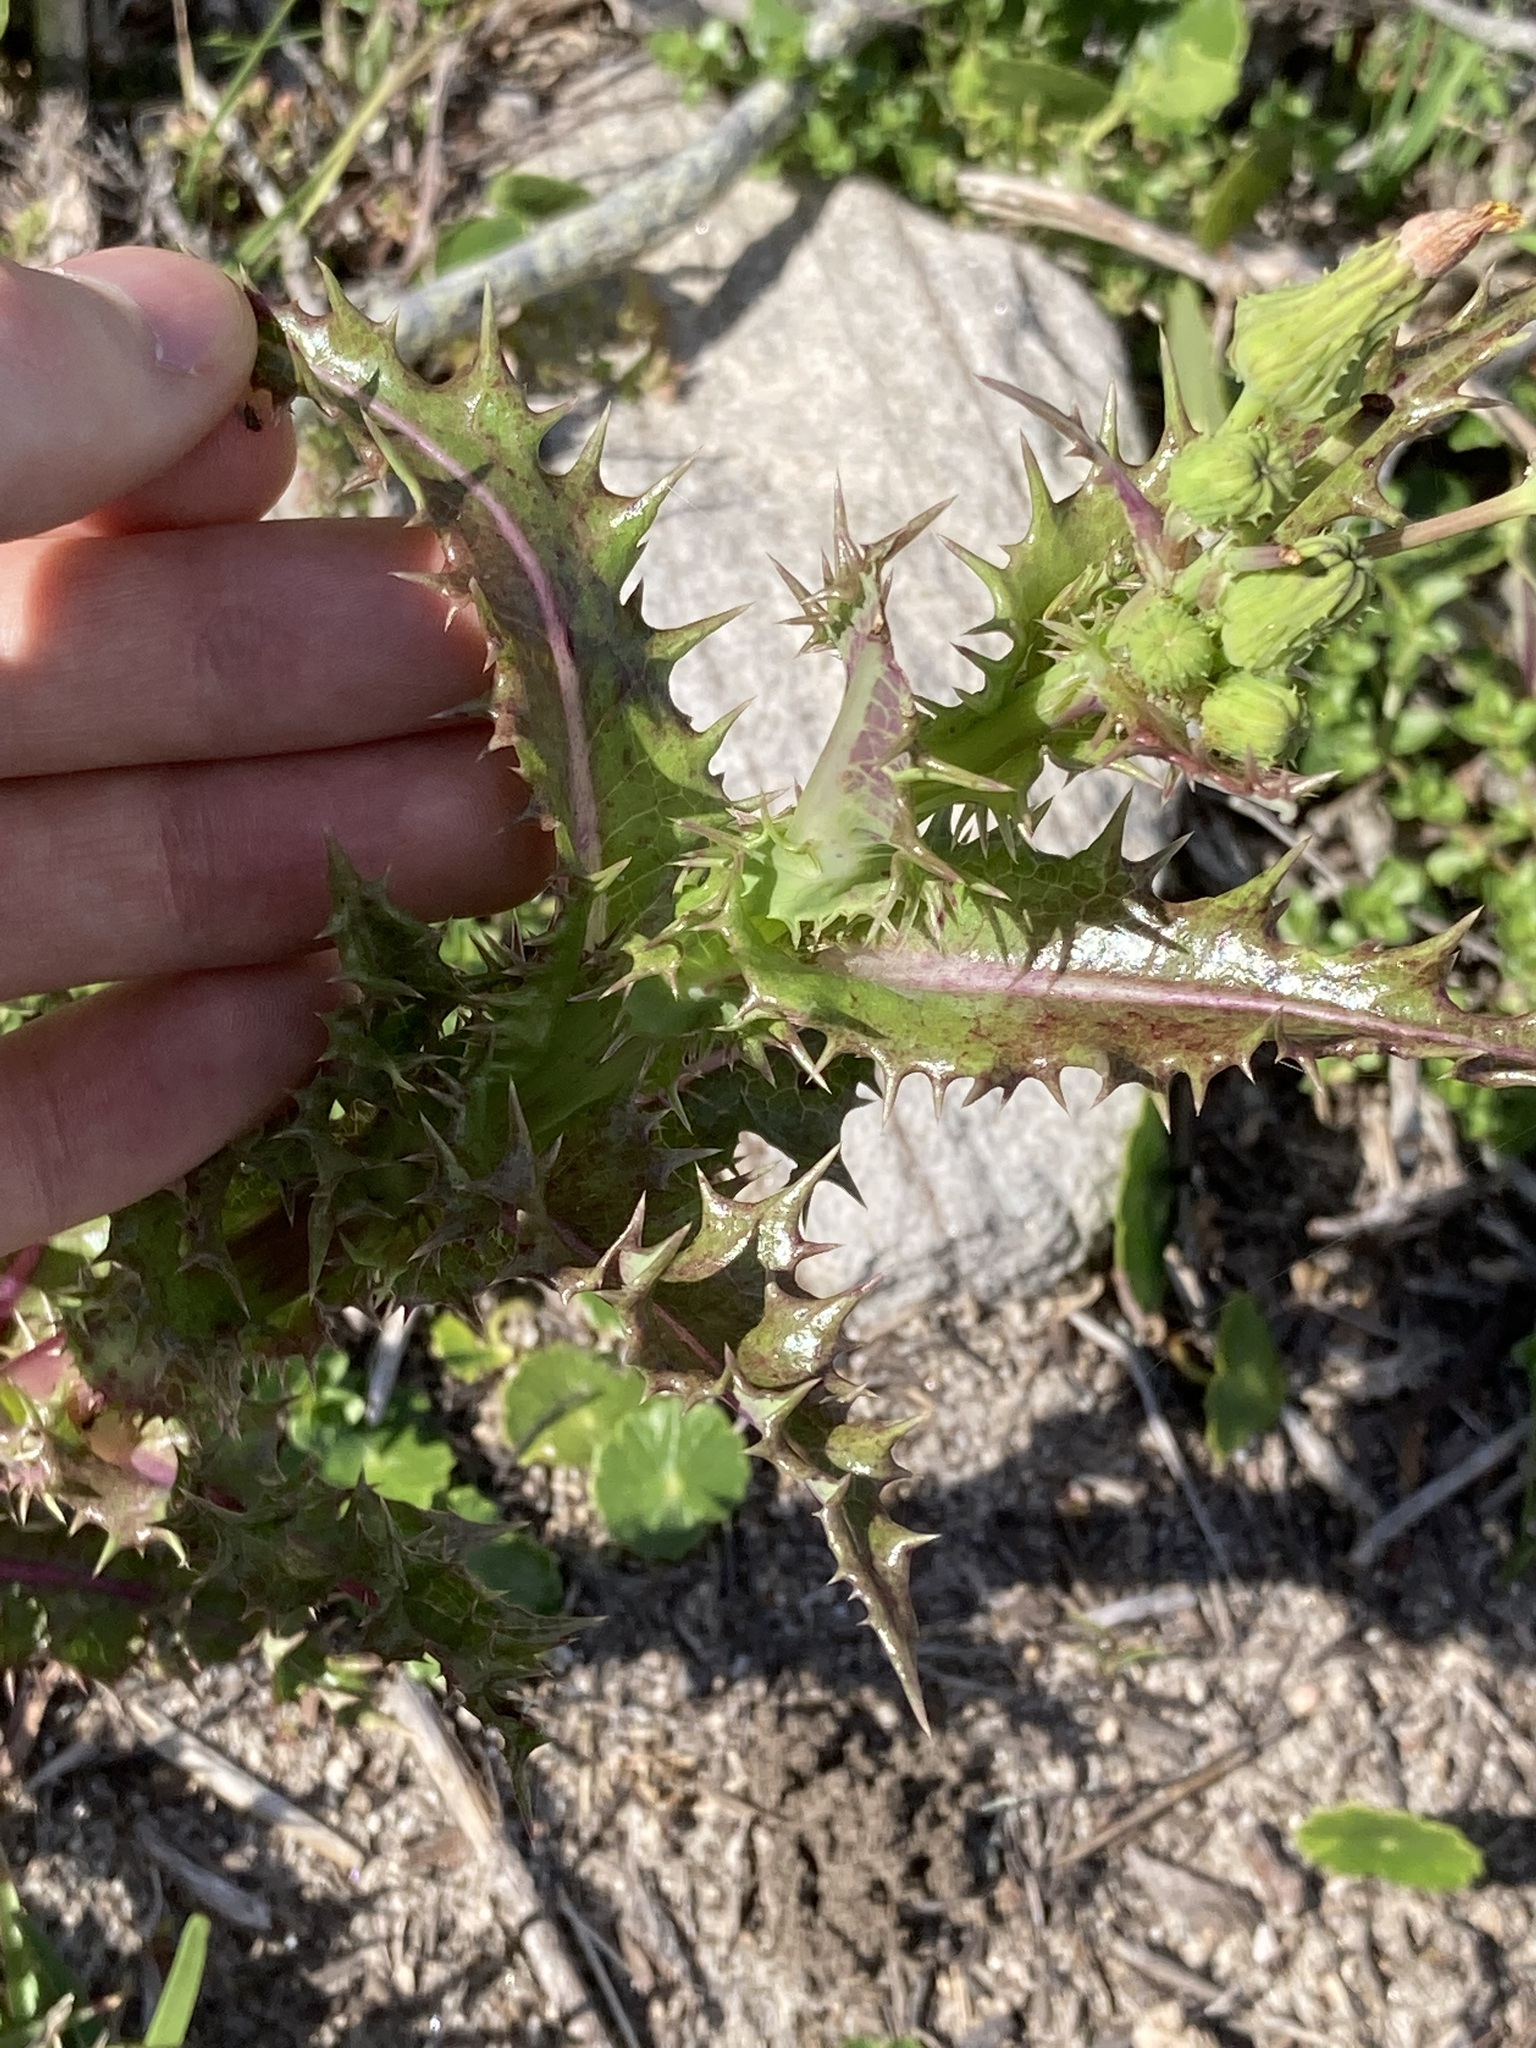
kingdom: Plantae
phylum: Tracheophyta
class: Magnoliopsida
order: Asterales
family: Asteraceae
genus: Sonchus
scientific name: Sonchus asper
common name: Prickly sow-thistle
